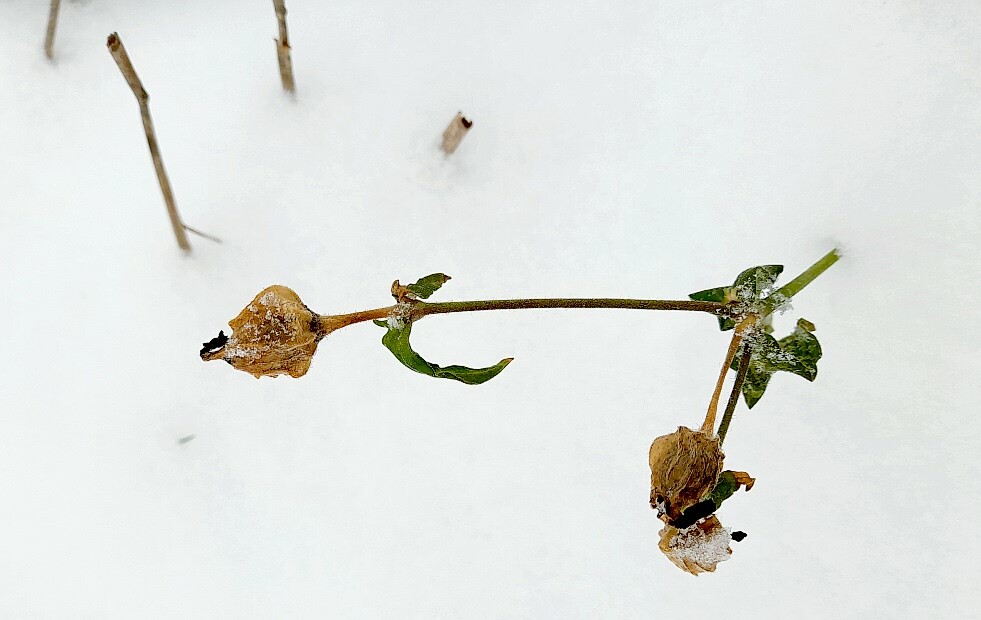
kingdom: Plantae
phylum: Tracheophyta
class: Magnoliopsida
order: Caryophyllales
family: Caryophyllaceae
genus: Silene
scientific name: Silene latifolia
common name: White campion
